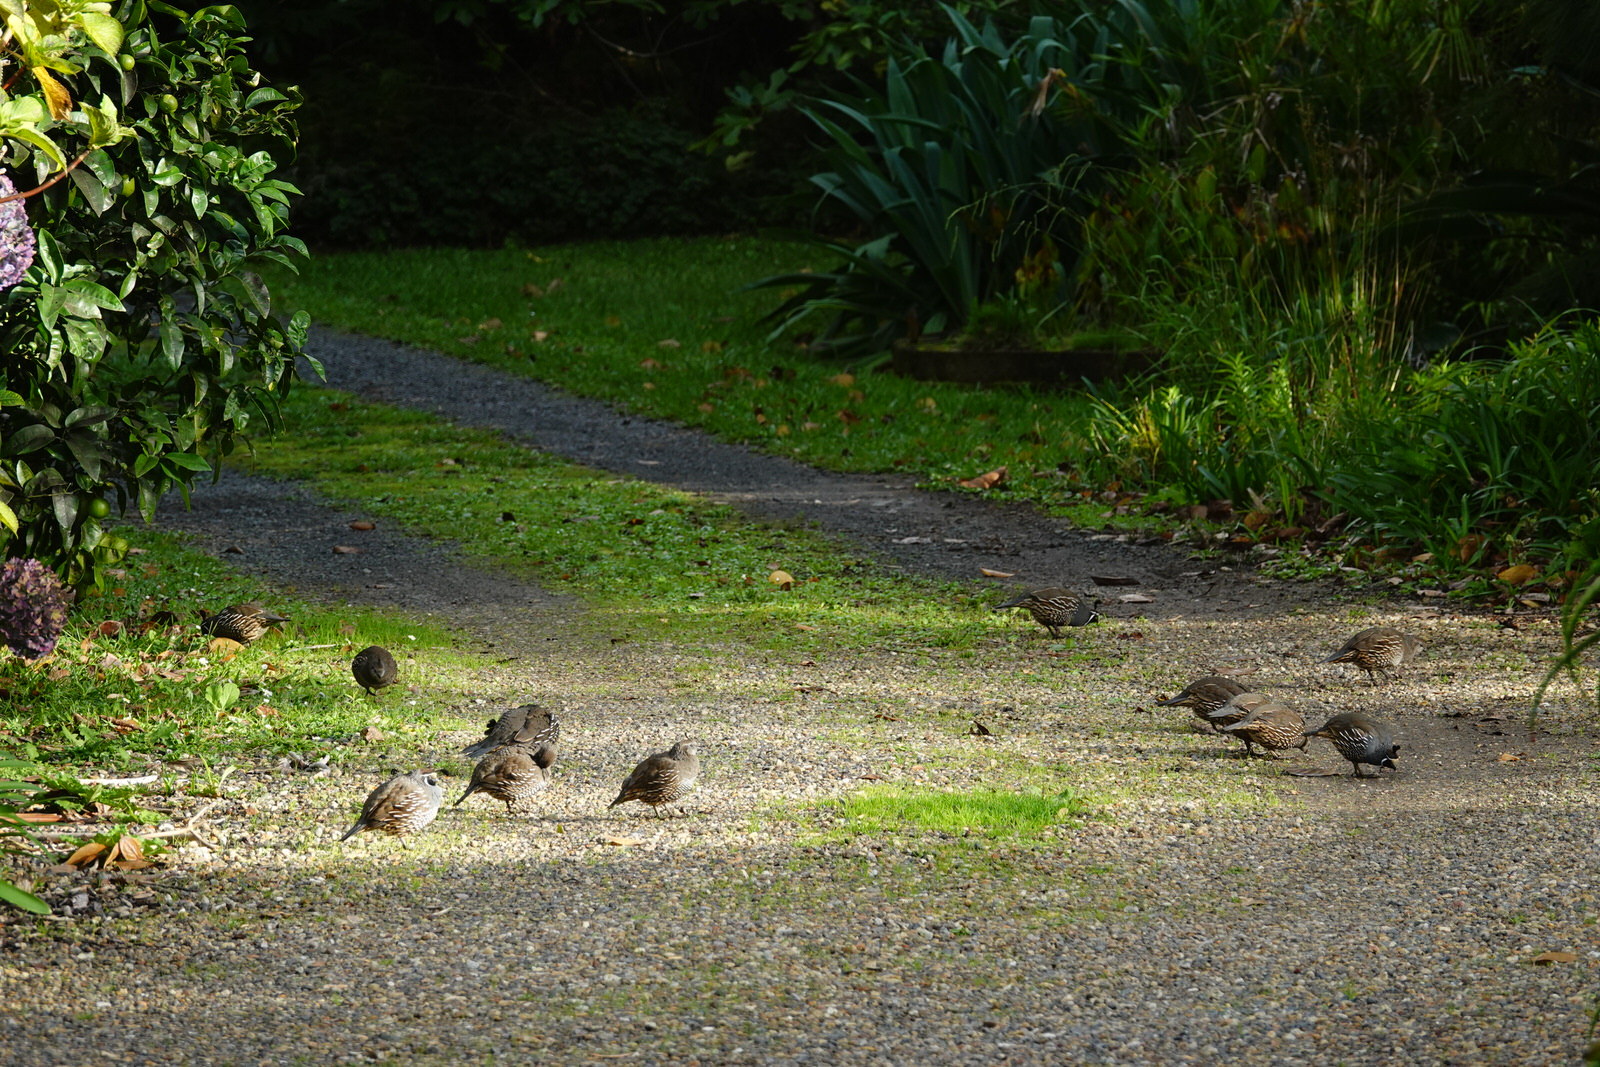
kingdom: Animalia
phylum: Chordata
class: Aves
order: Galliformes
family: Odontophoridae
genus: Callipepla
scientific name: Callipepla californica
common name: California quail
